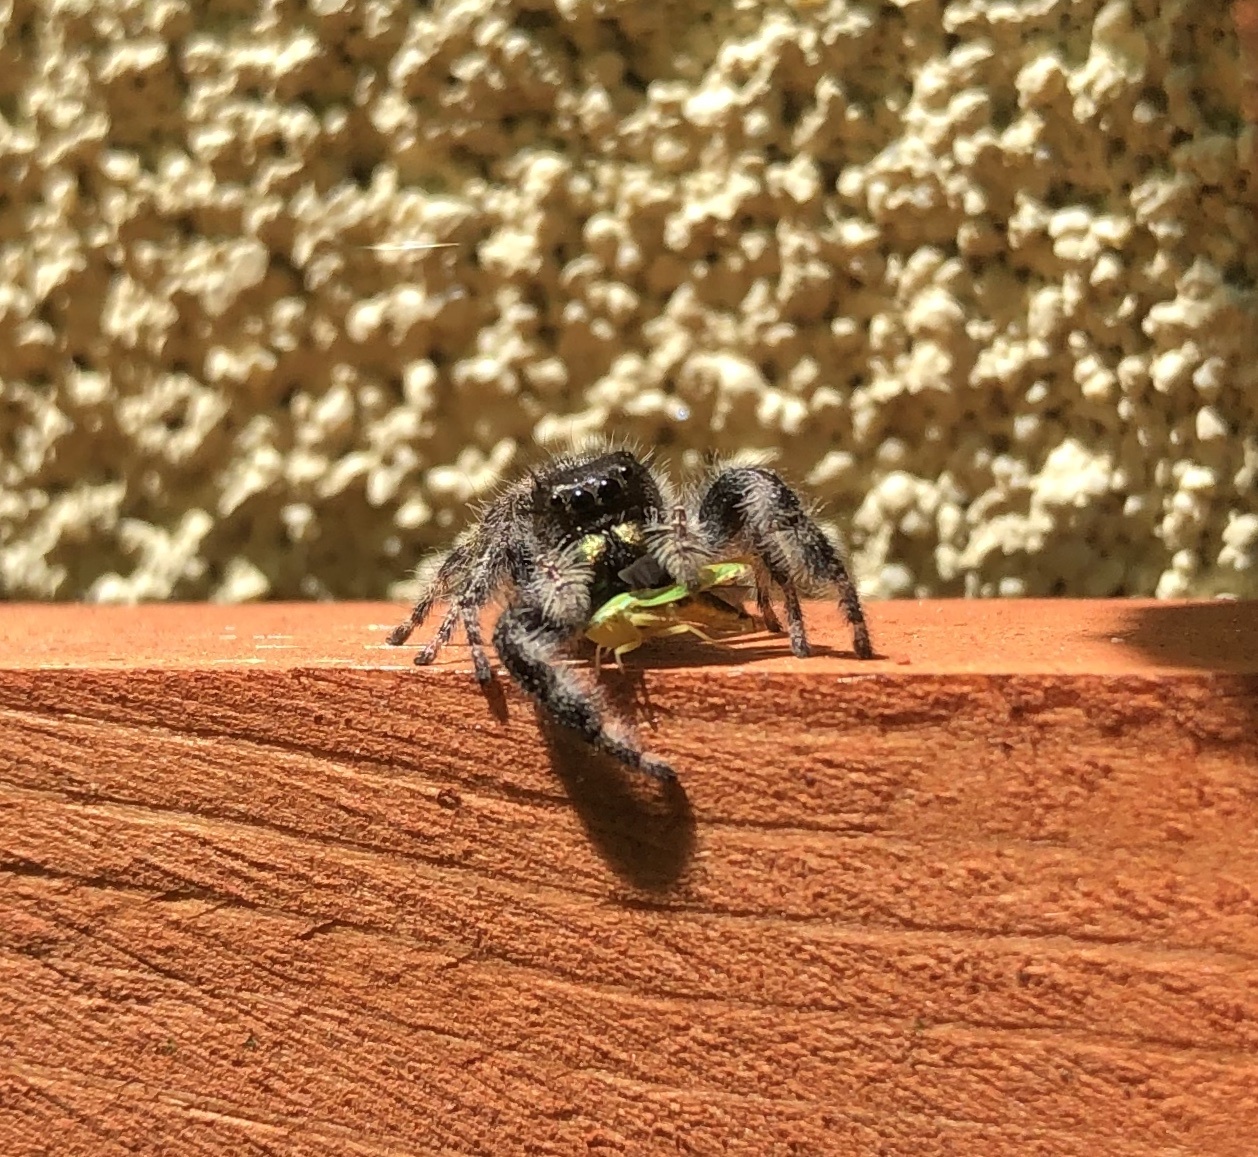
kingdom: Animalia
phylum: Arthropoda
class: Arachnida
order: Araneae
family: Salticidae
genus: Phidippus
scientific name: Phidippus audax
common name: Bold jumper
